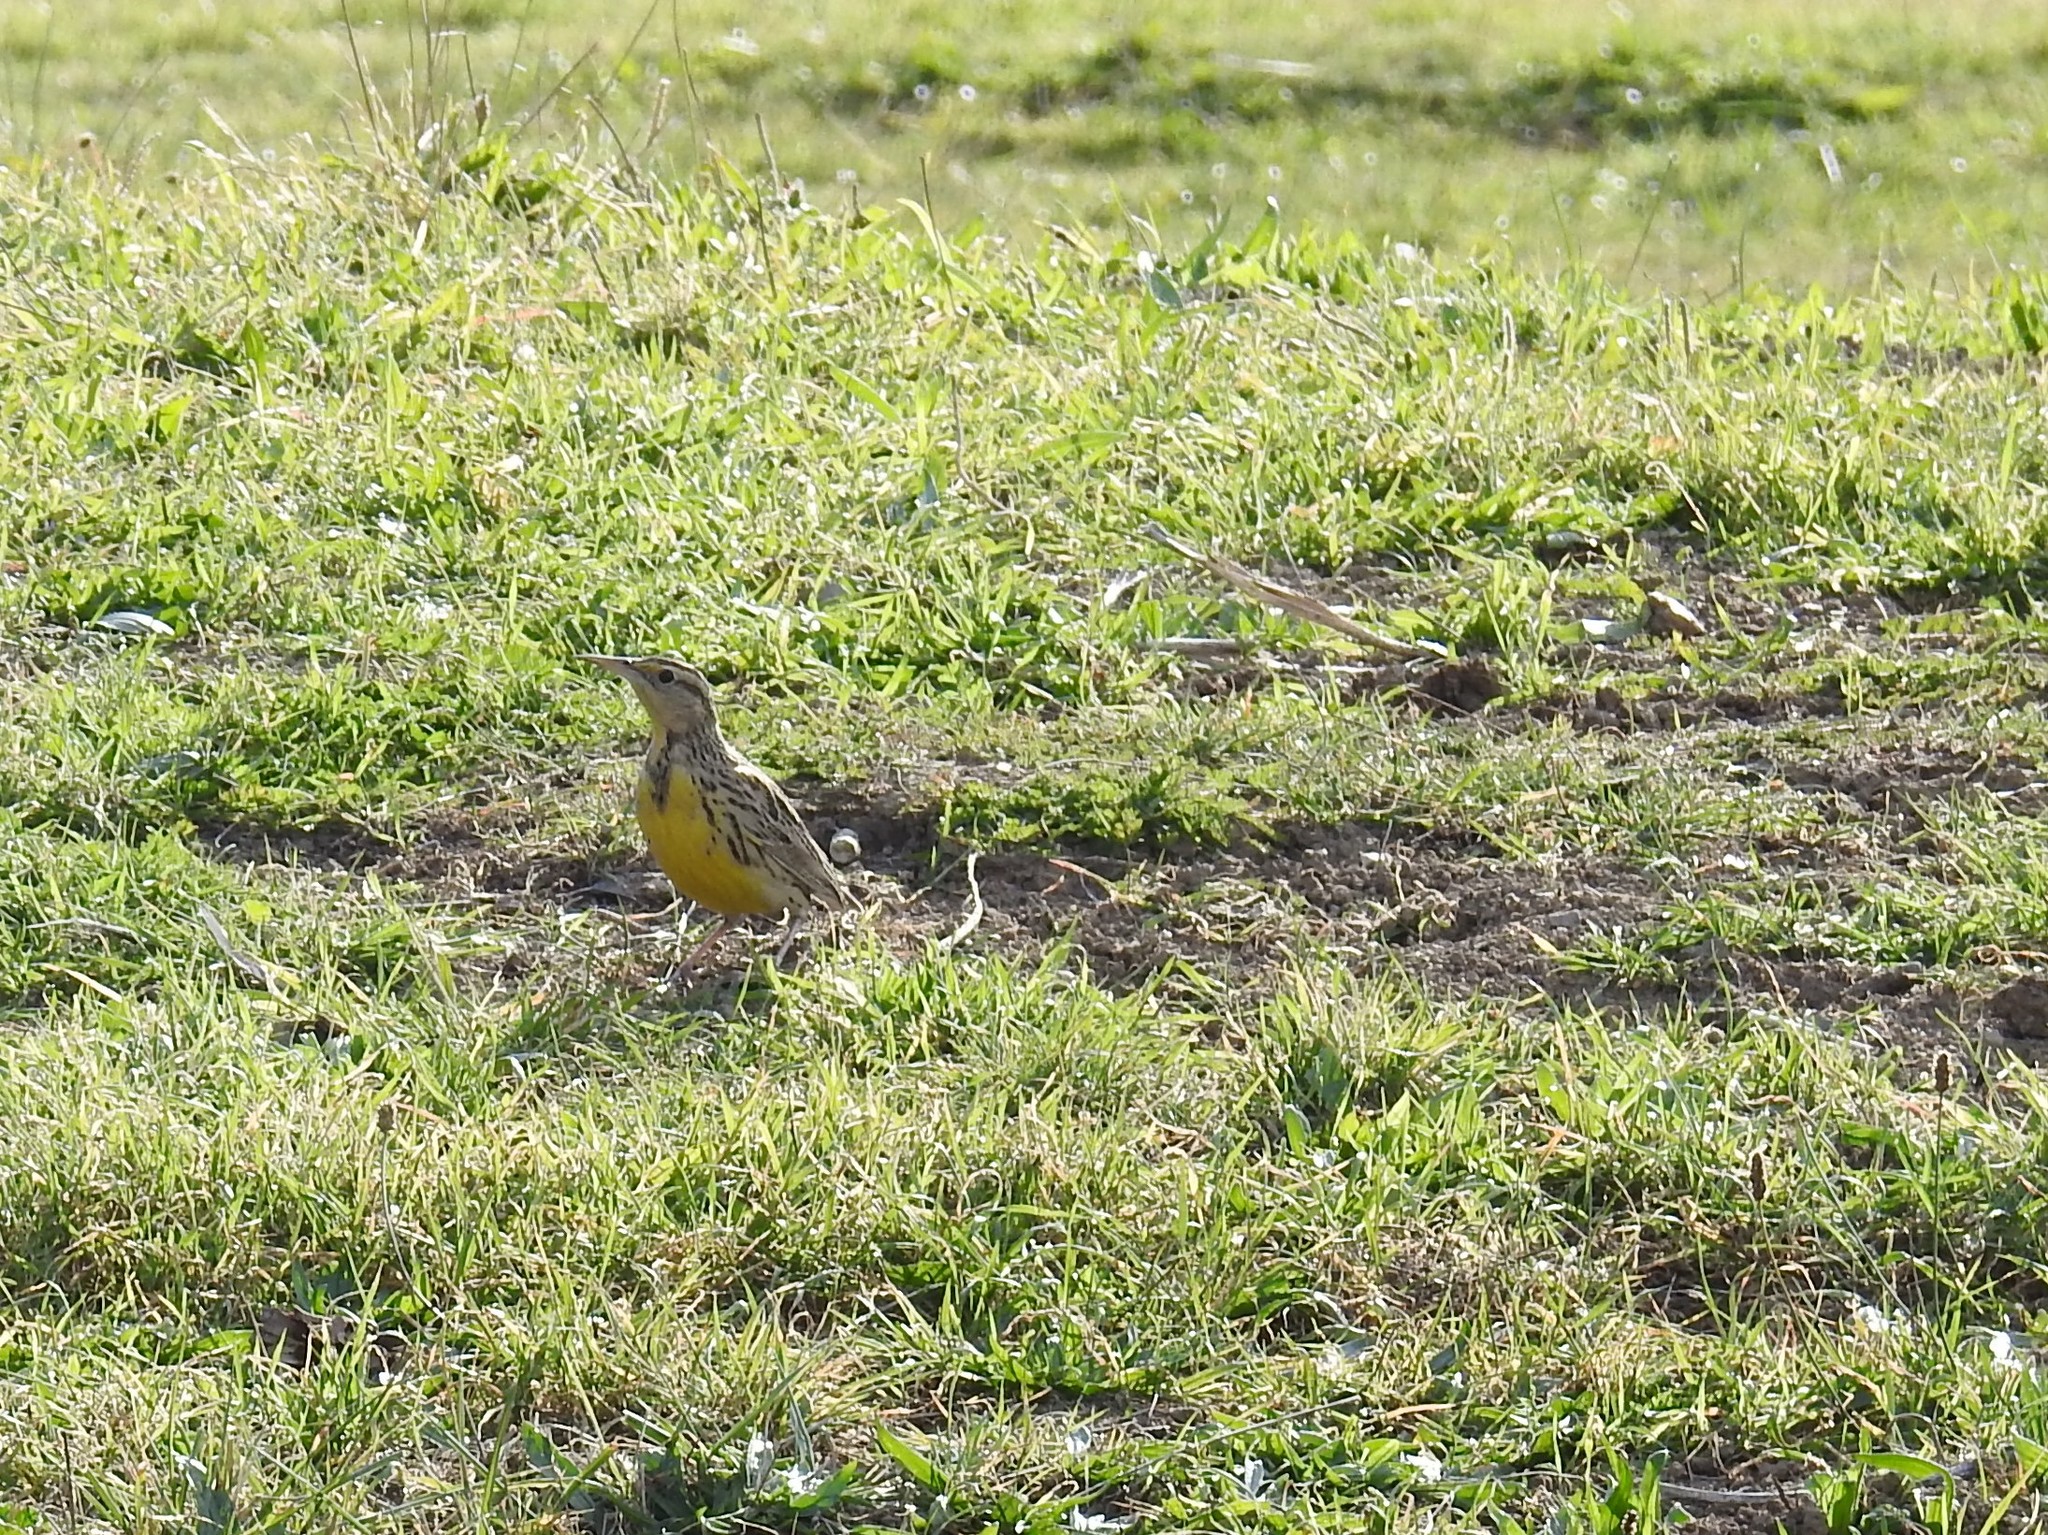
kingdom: Animalia
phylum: Chordata
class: Aves
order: Passeriformes
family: Icteridae
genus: Sturnella
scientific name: Sturnella neglecta
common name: Western meadowlark
